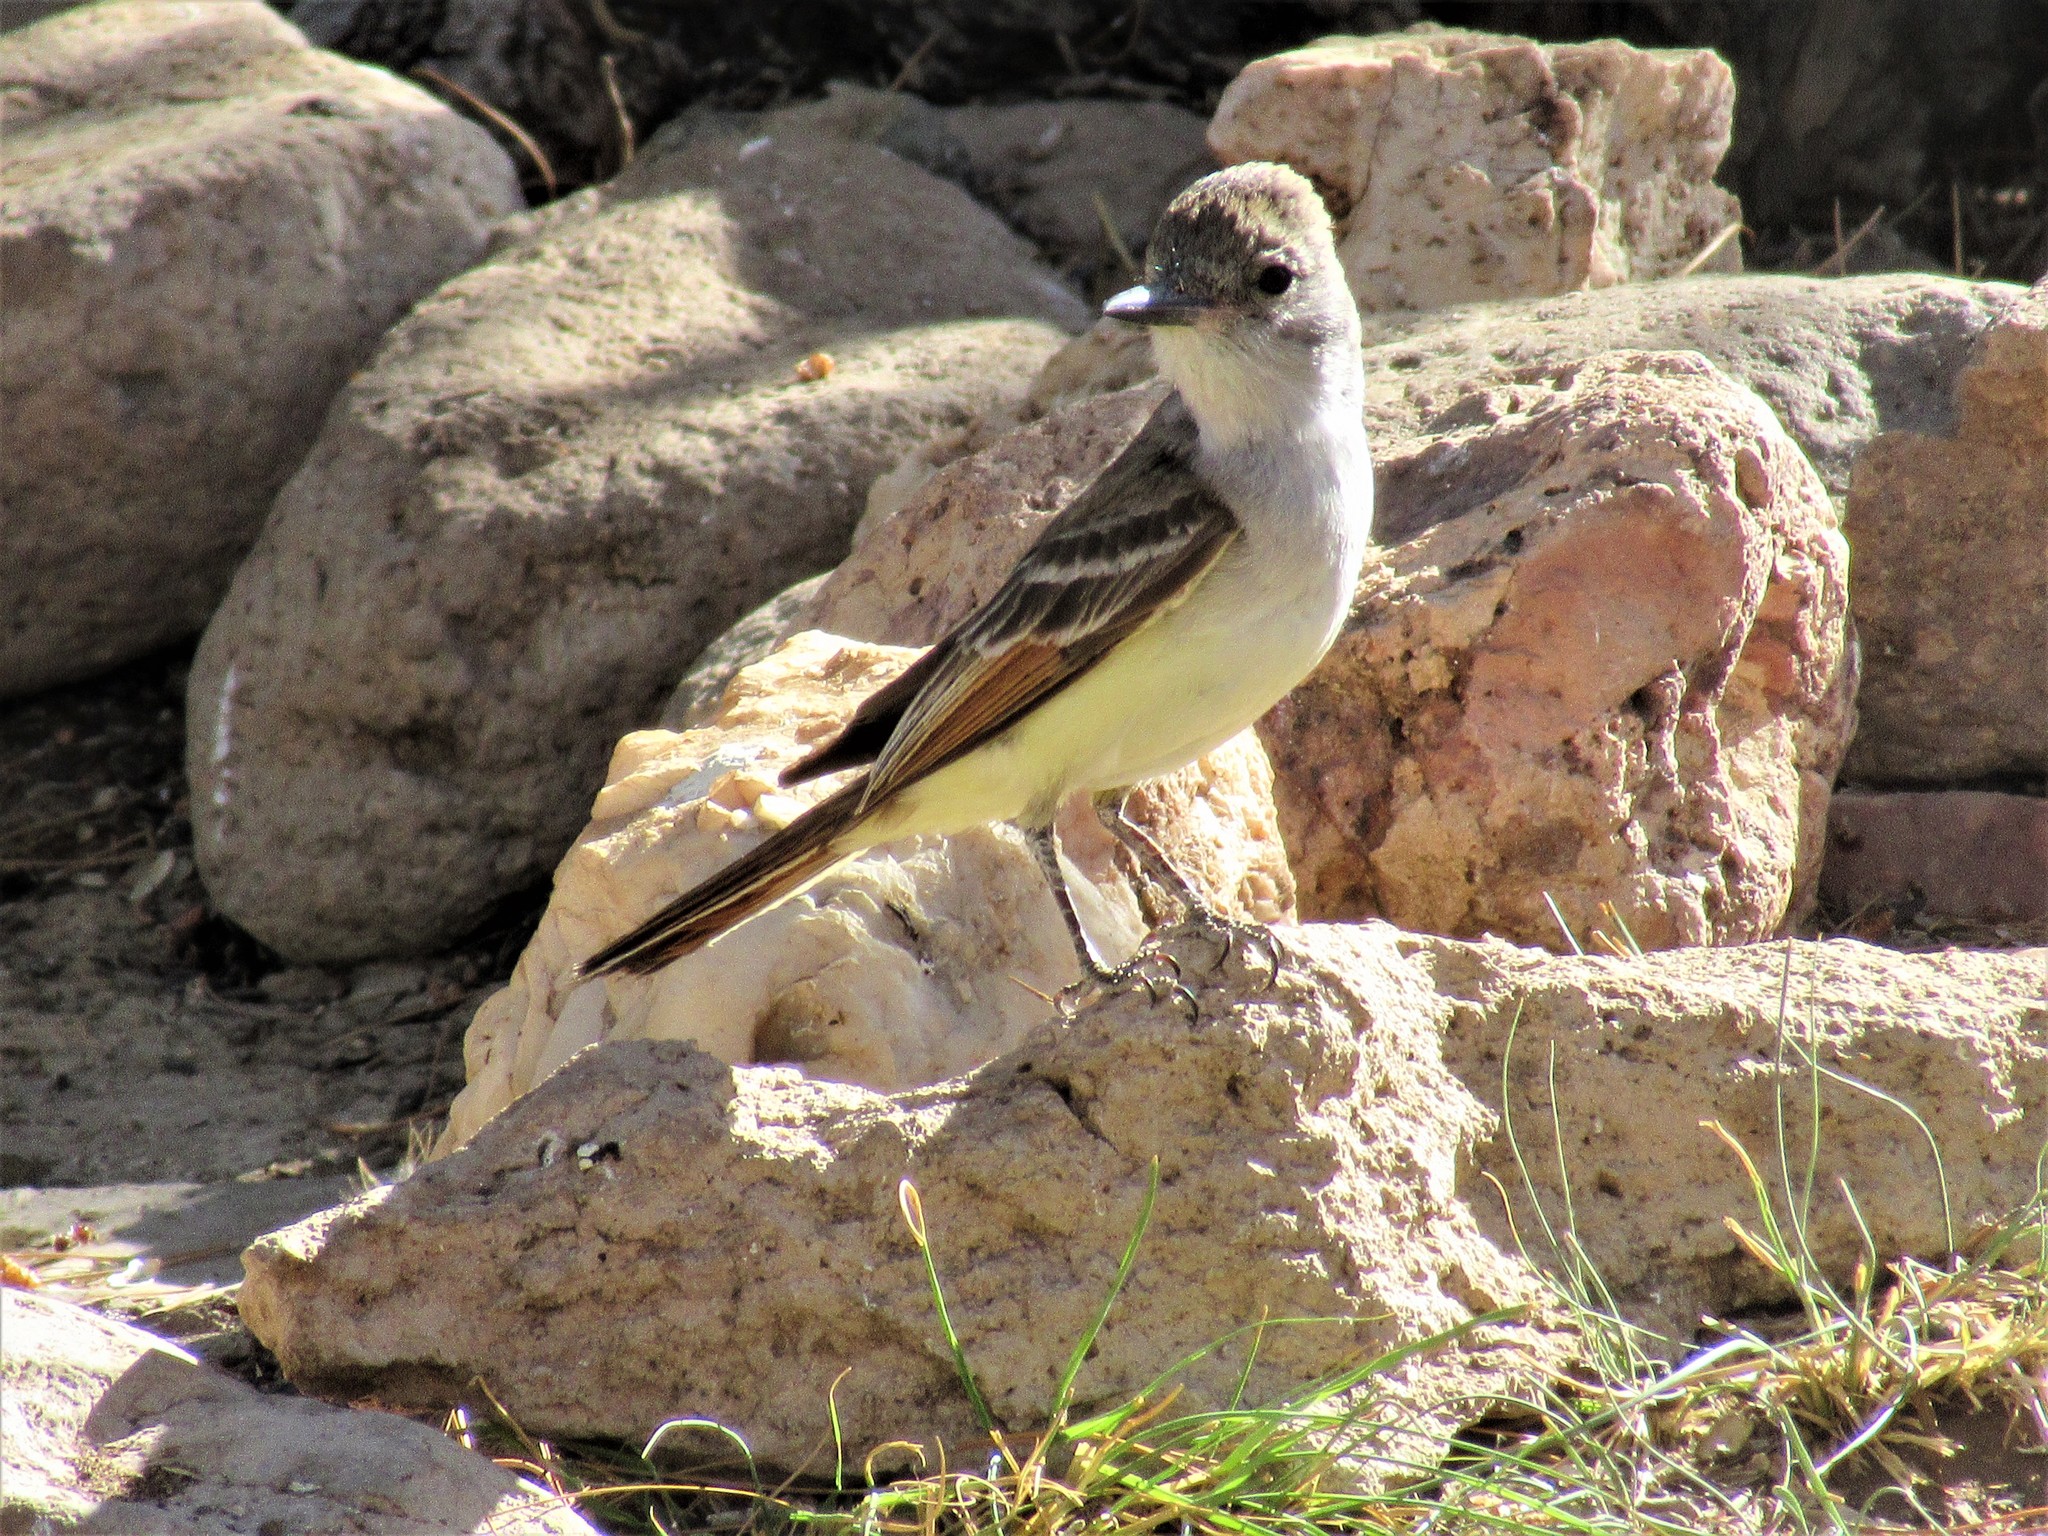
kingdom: Animalia
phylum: Chordata
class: Aves
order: Passeriformes
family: Tyrannidae
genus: Myiarchus
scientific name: Myiarchus cinerascens
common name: Ash-throated flycatcher
